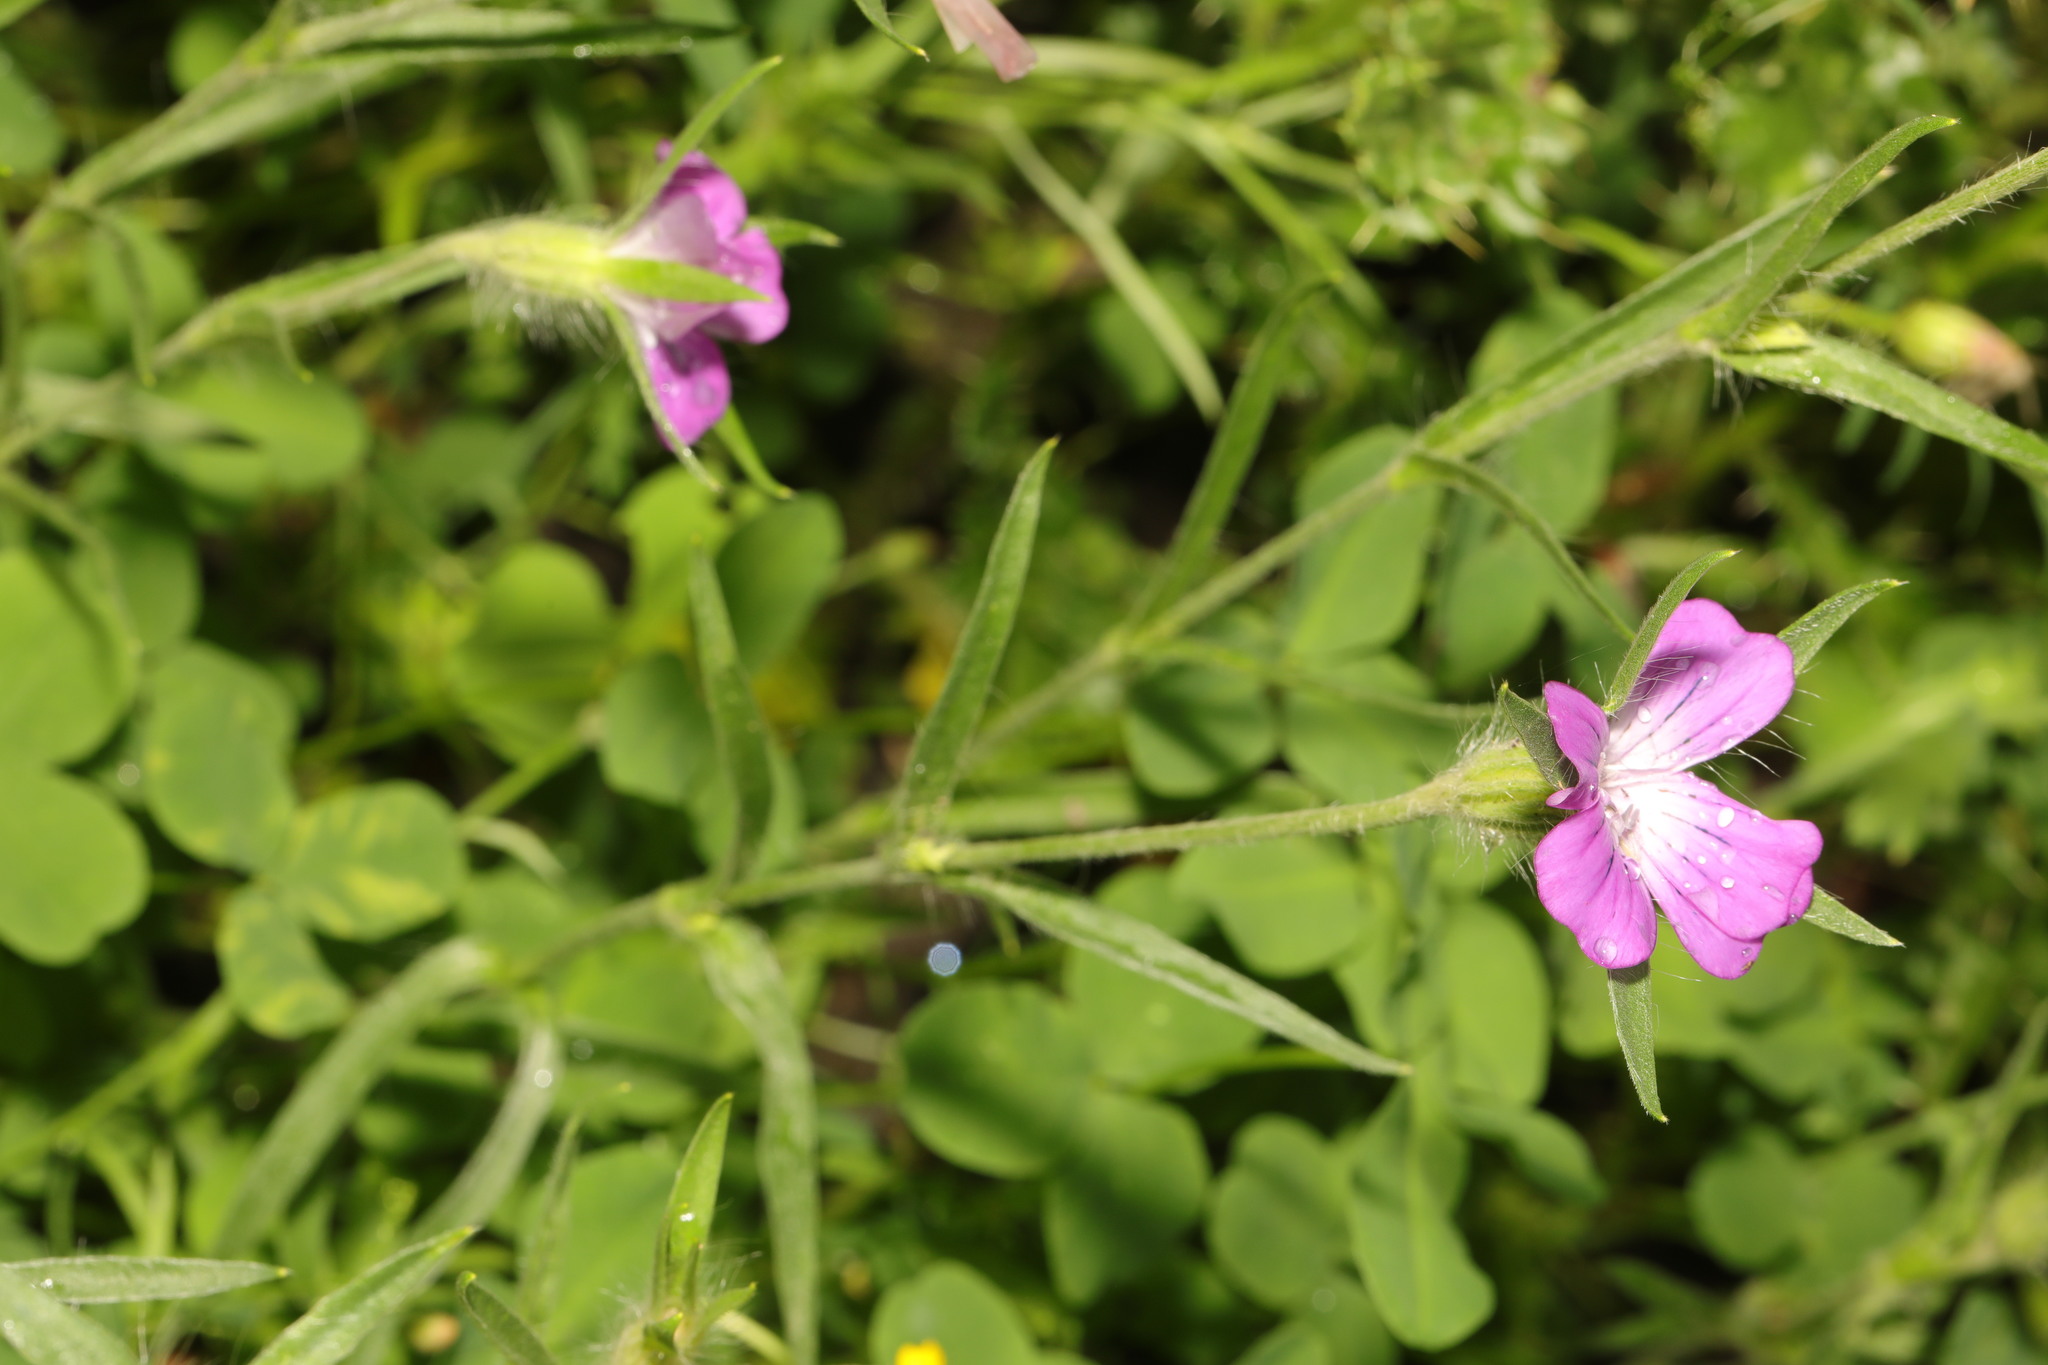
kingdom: Plantae
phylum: Tracheophyta
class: Magnoliopsida
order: Caryophyllales
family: Caryophyllaceae
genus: Agrostemma
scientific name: Agrostemma githago
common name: Common corncockle
